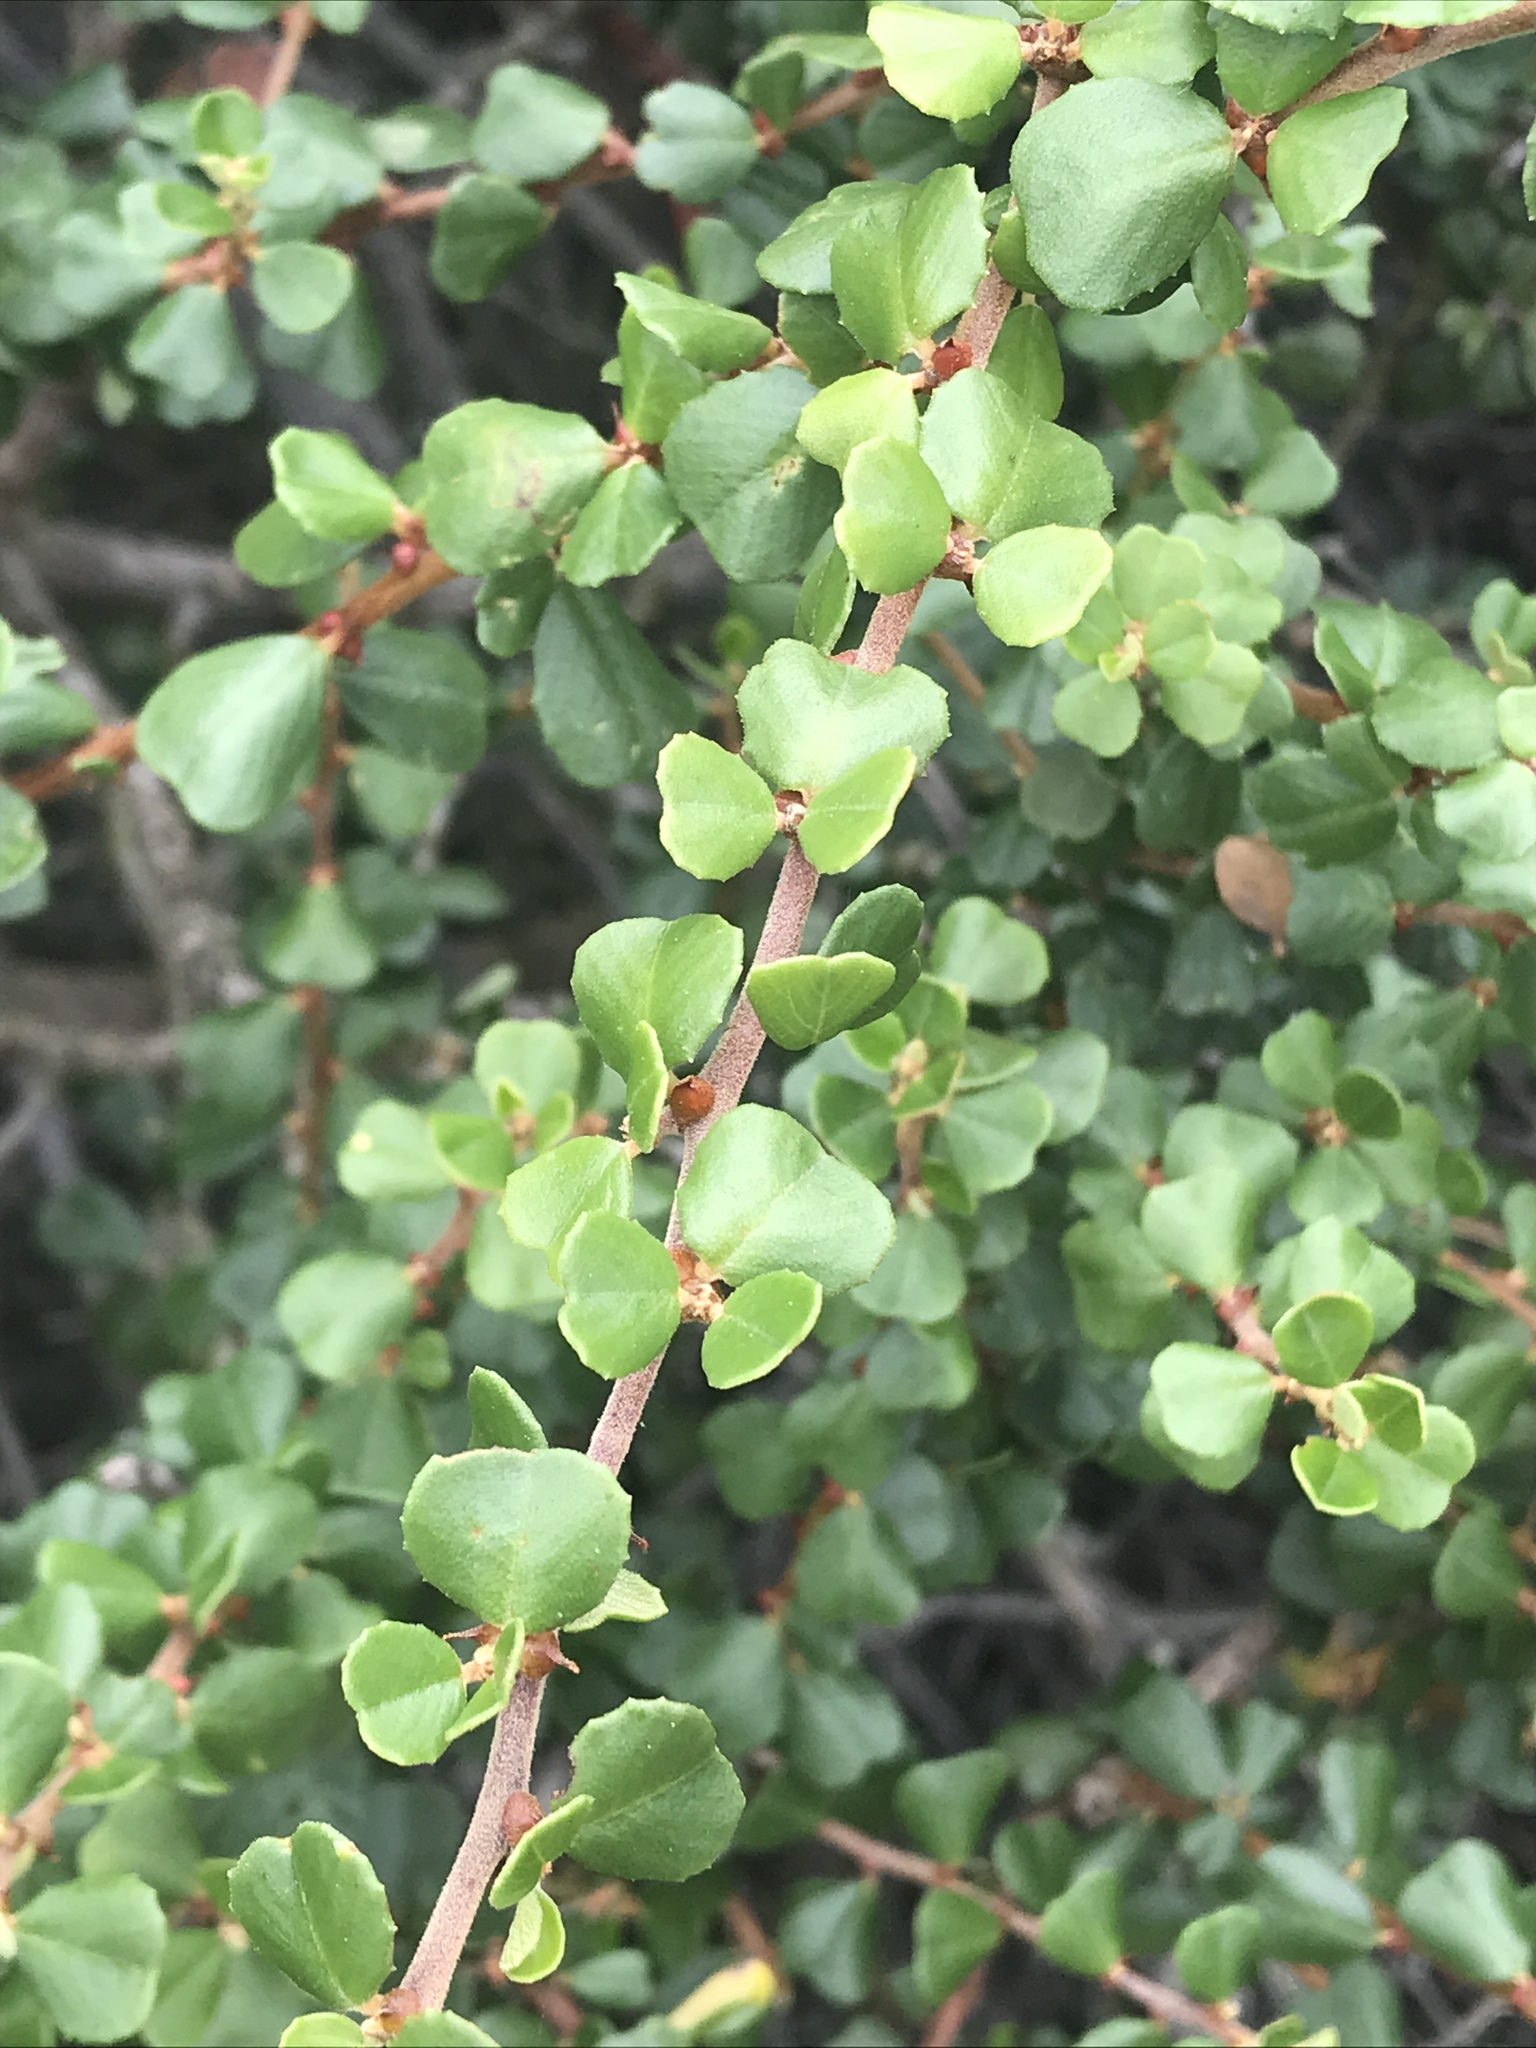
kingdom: Plantae
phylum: Tracheophyta
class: Magnoliopsida
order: Rosales
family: Rhamnaceae
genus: Ceanothus
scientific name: Ceanothus verrucosus
